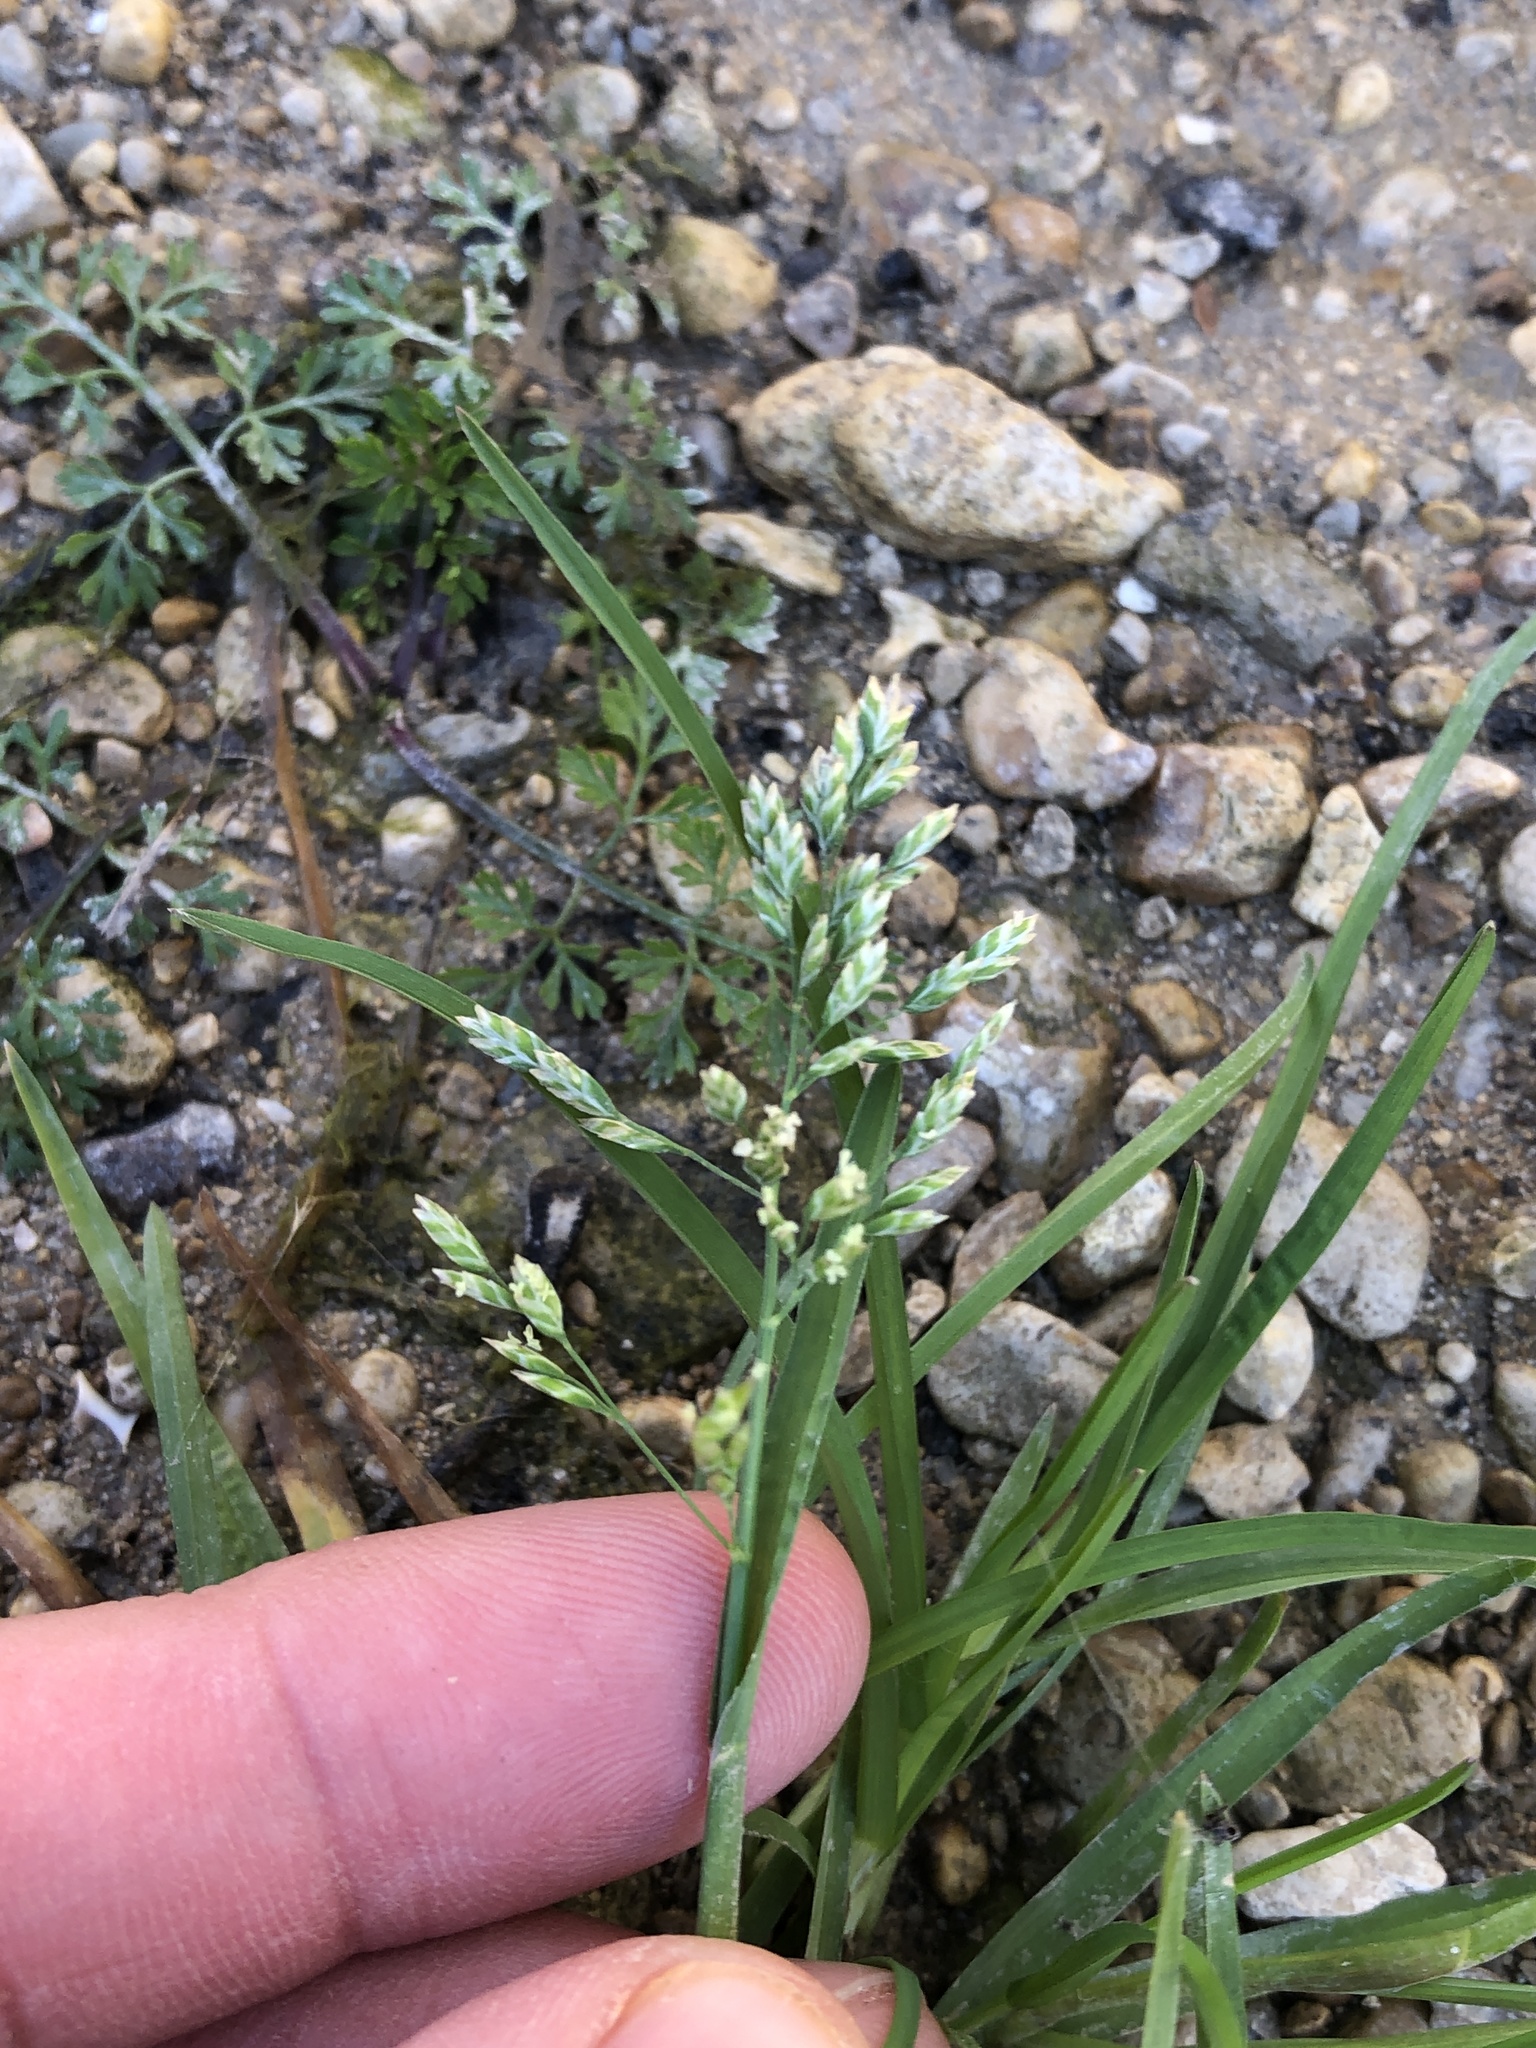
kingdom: Plantae
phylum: Tracheophyta
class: Liliopsida
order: Poales
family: Poaceae
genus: Poa
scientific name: Poa annua
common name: Annual bluegrass
